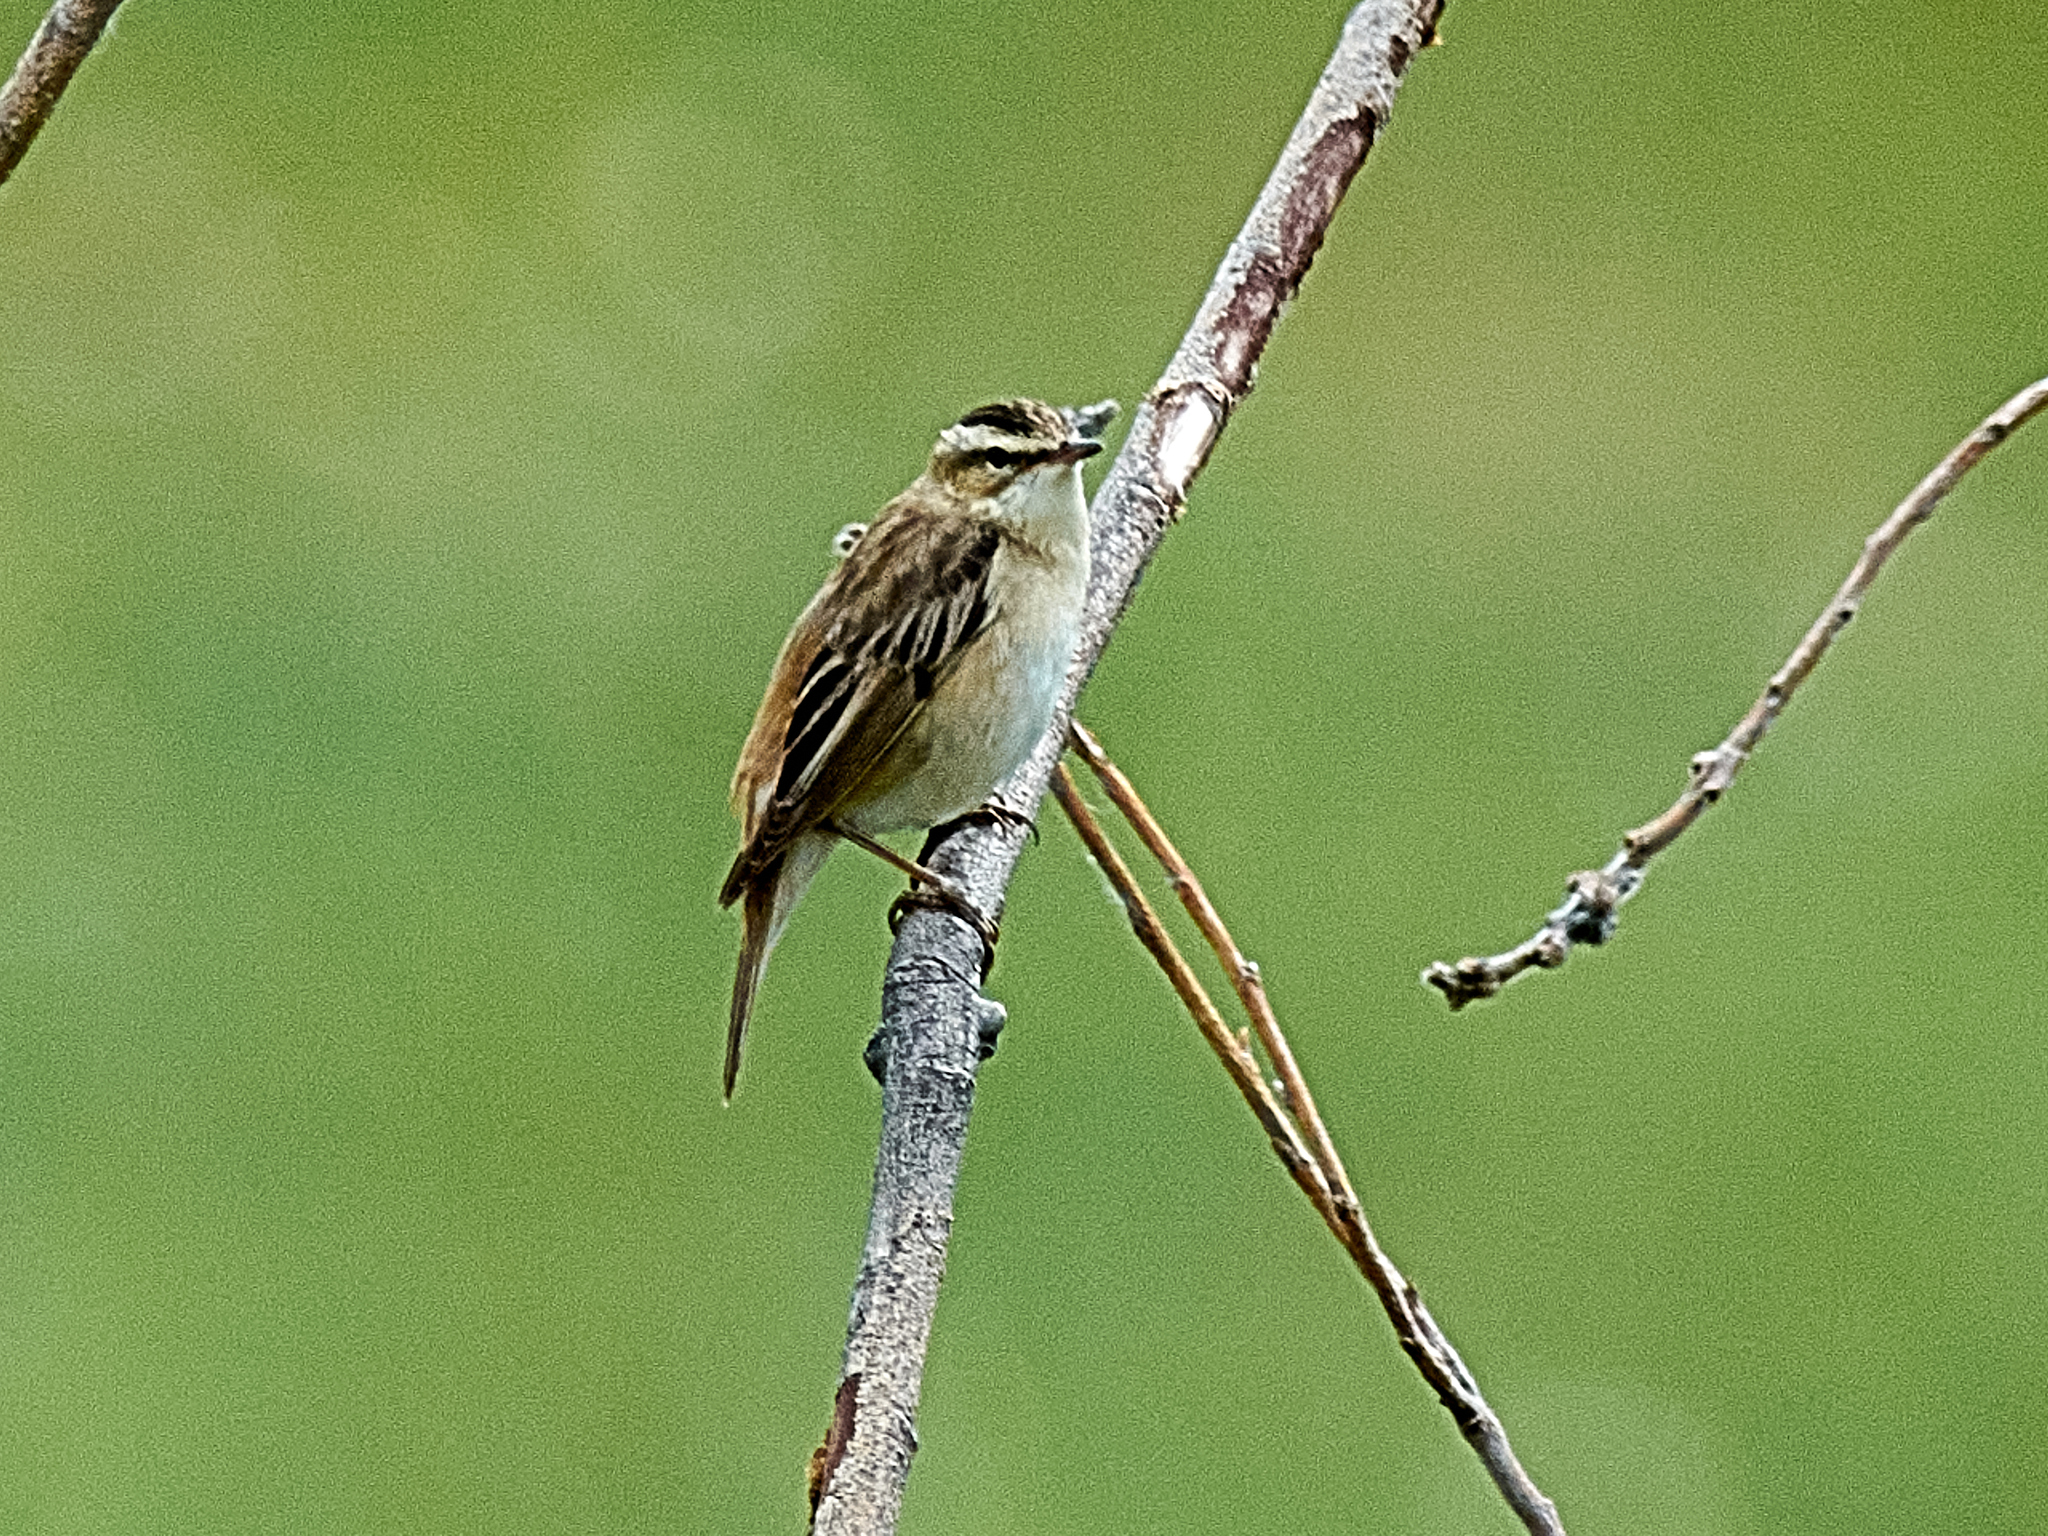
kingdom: Animalia
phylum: Chordata
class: Aves
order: Passeriformes
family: Acrocephalidae
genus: Acrocephalus
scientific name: Acrocephalus schoenobaenus
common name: Sedge warbler
